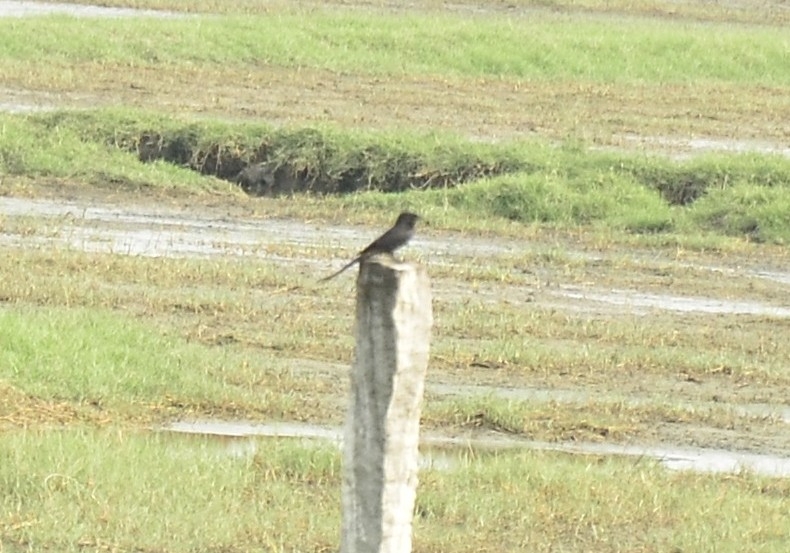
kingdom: Animalia
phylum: Chordata
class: Aves
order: Passeriformes
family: Dicruridae
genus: Dicrurus
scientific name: Dicrurus macrocercus
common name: Black drongo
